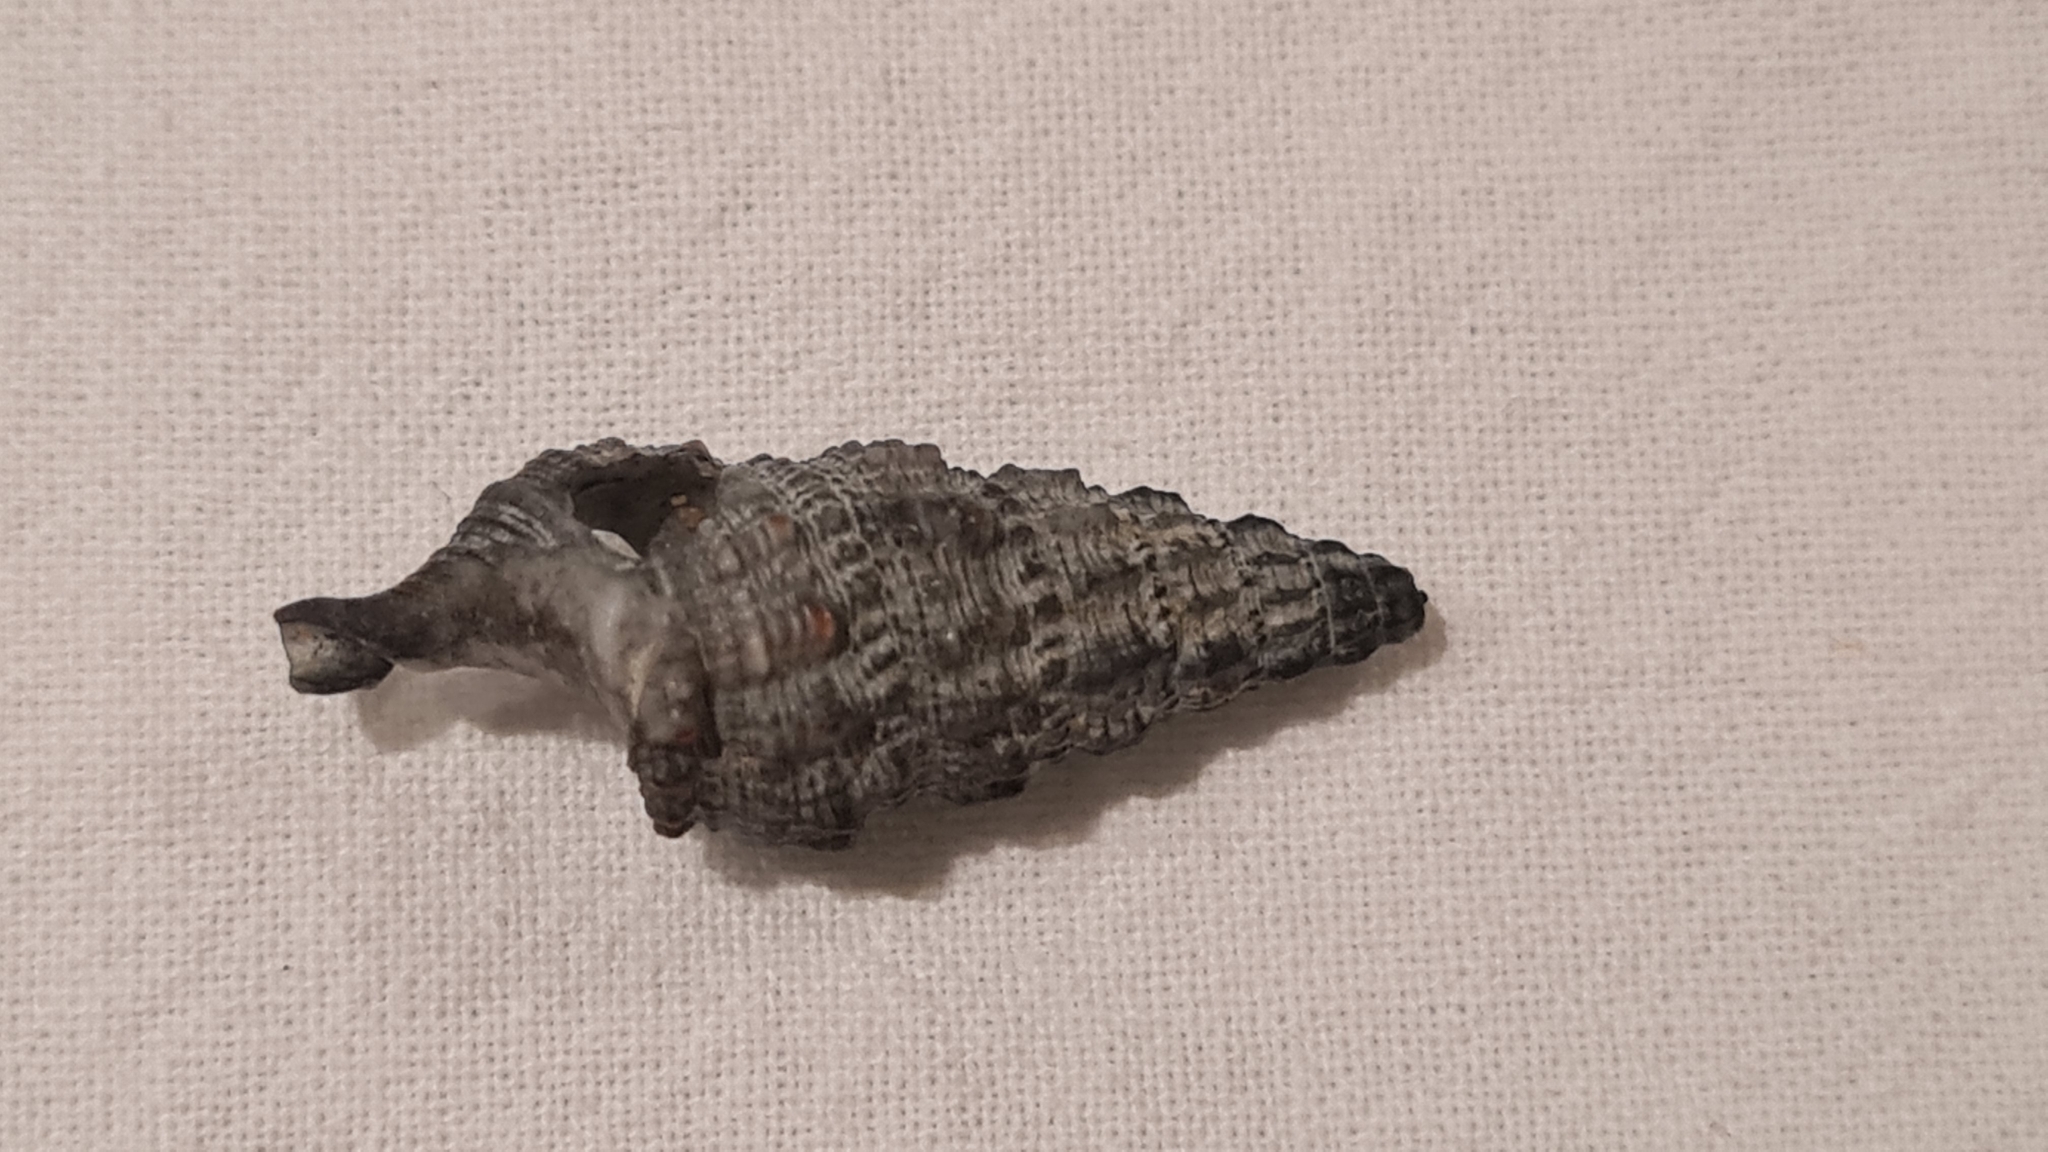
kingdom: Animalia
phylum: Mollusca
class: Gastropoda
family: Cerithiidae
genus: Cerithium
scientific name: Cerithium atratum
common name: Dark cerith
